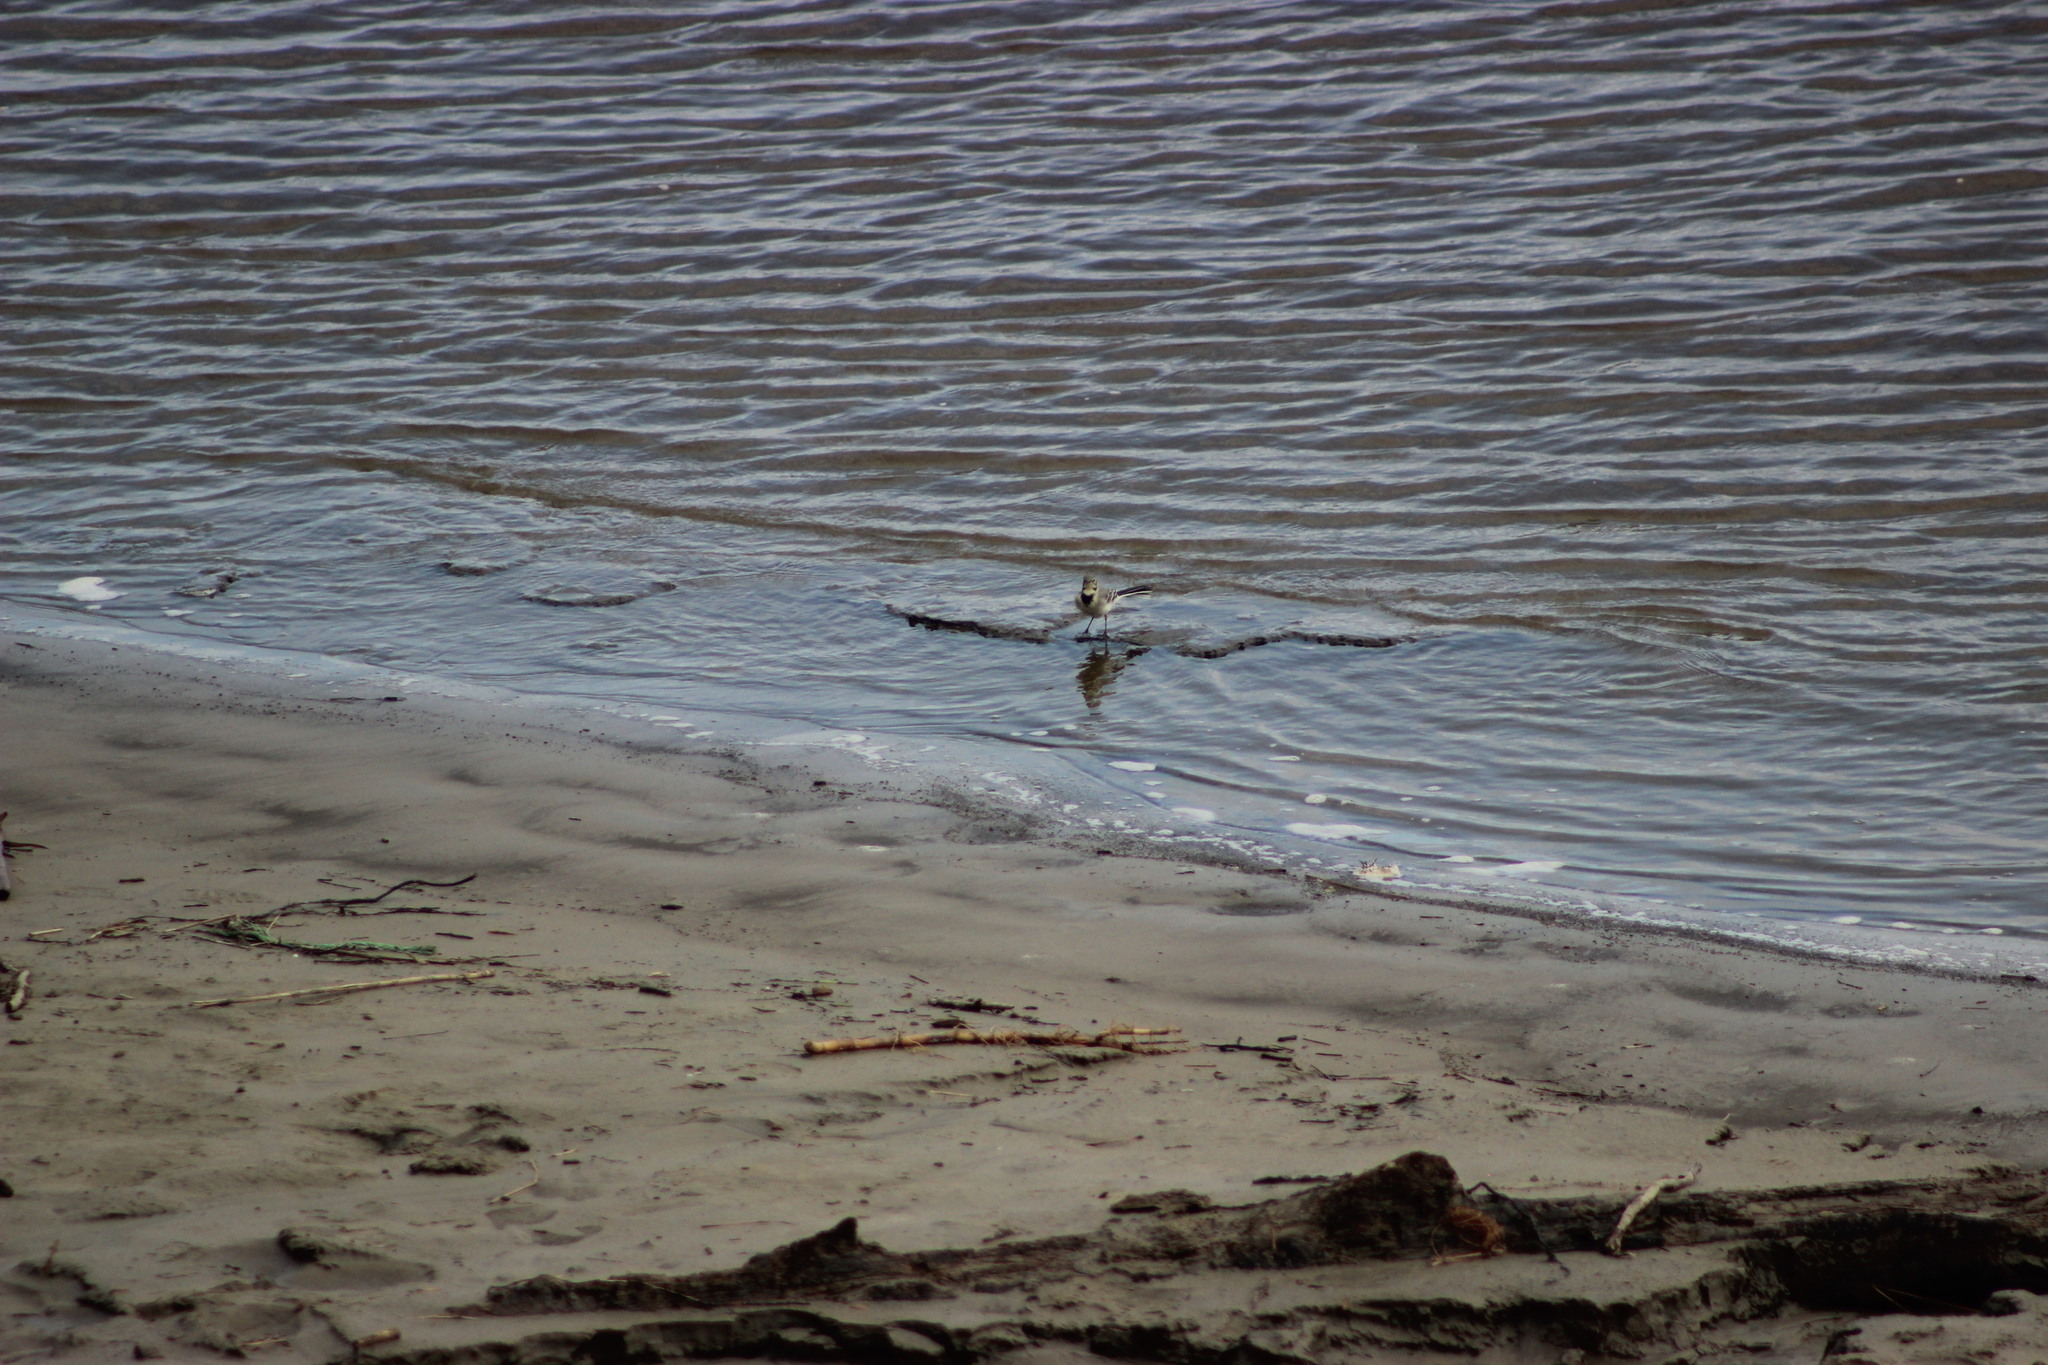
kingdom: Animalia
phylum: Chordata
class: Aves
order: Passeriformes
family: Motacillidae
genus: Motacilla
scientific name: Motacilla alba
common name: White wagtail
